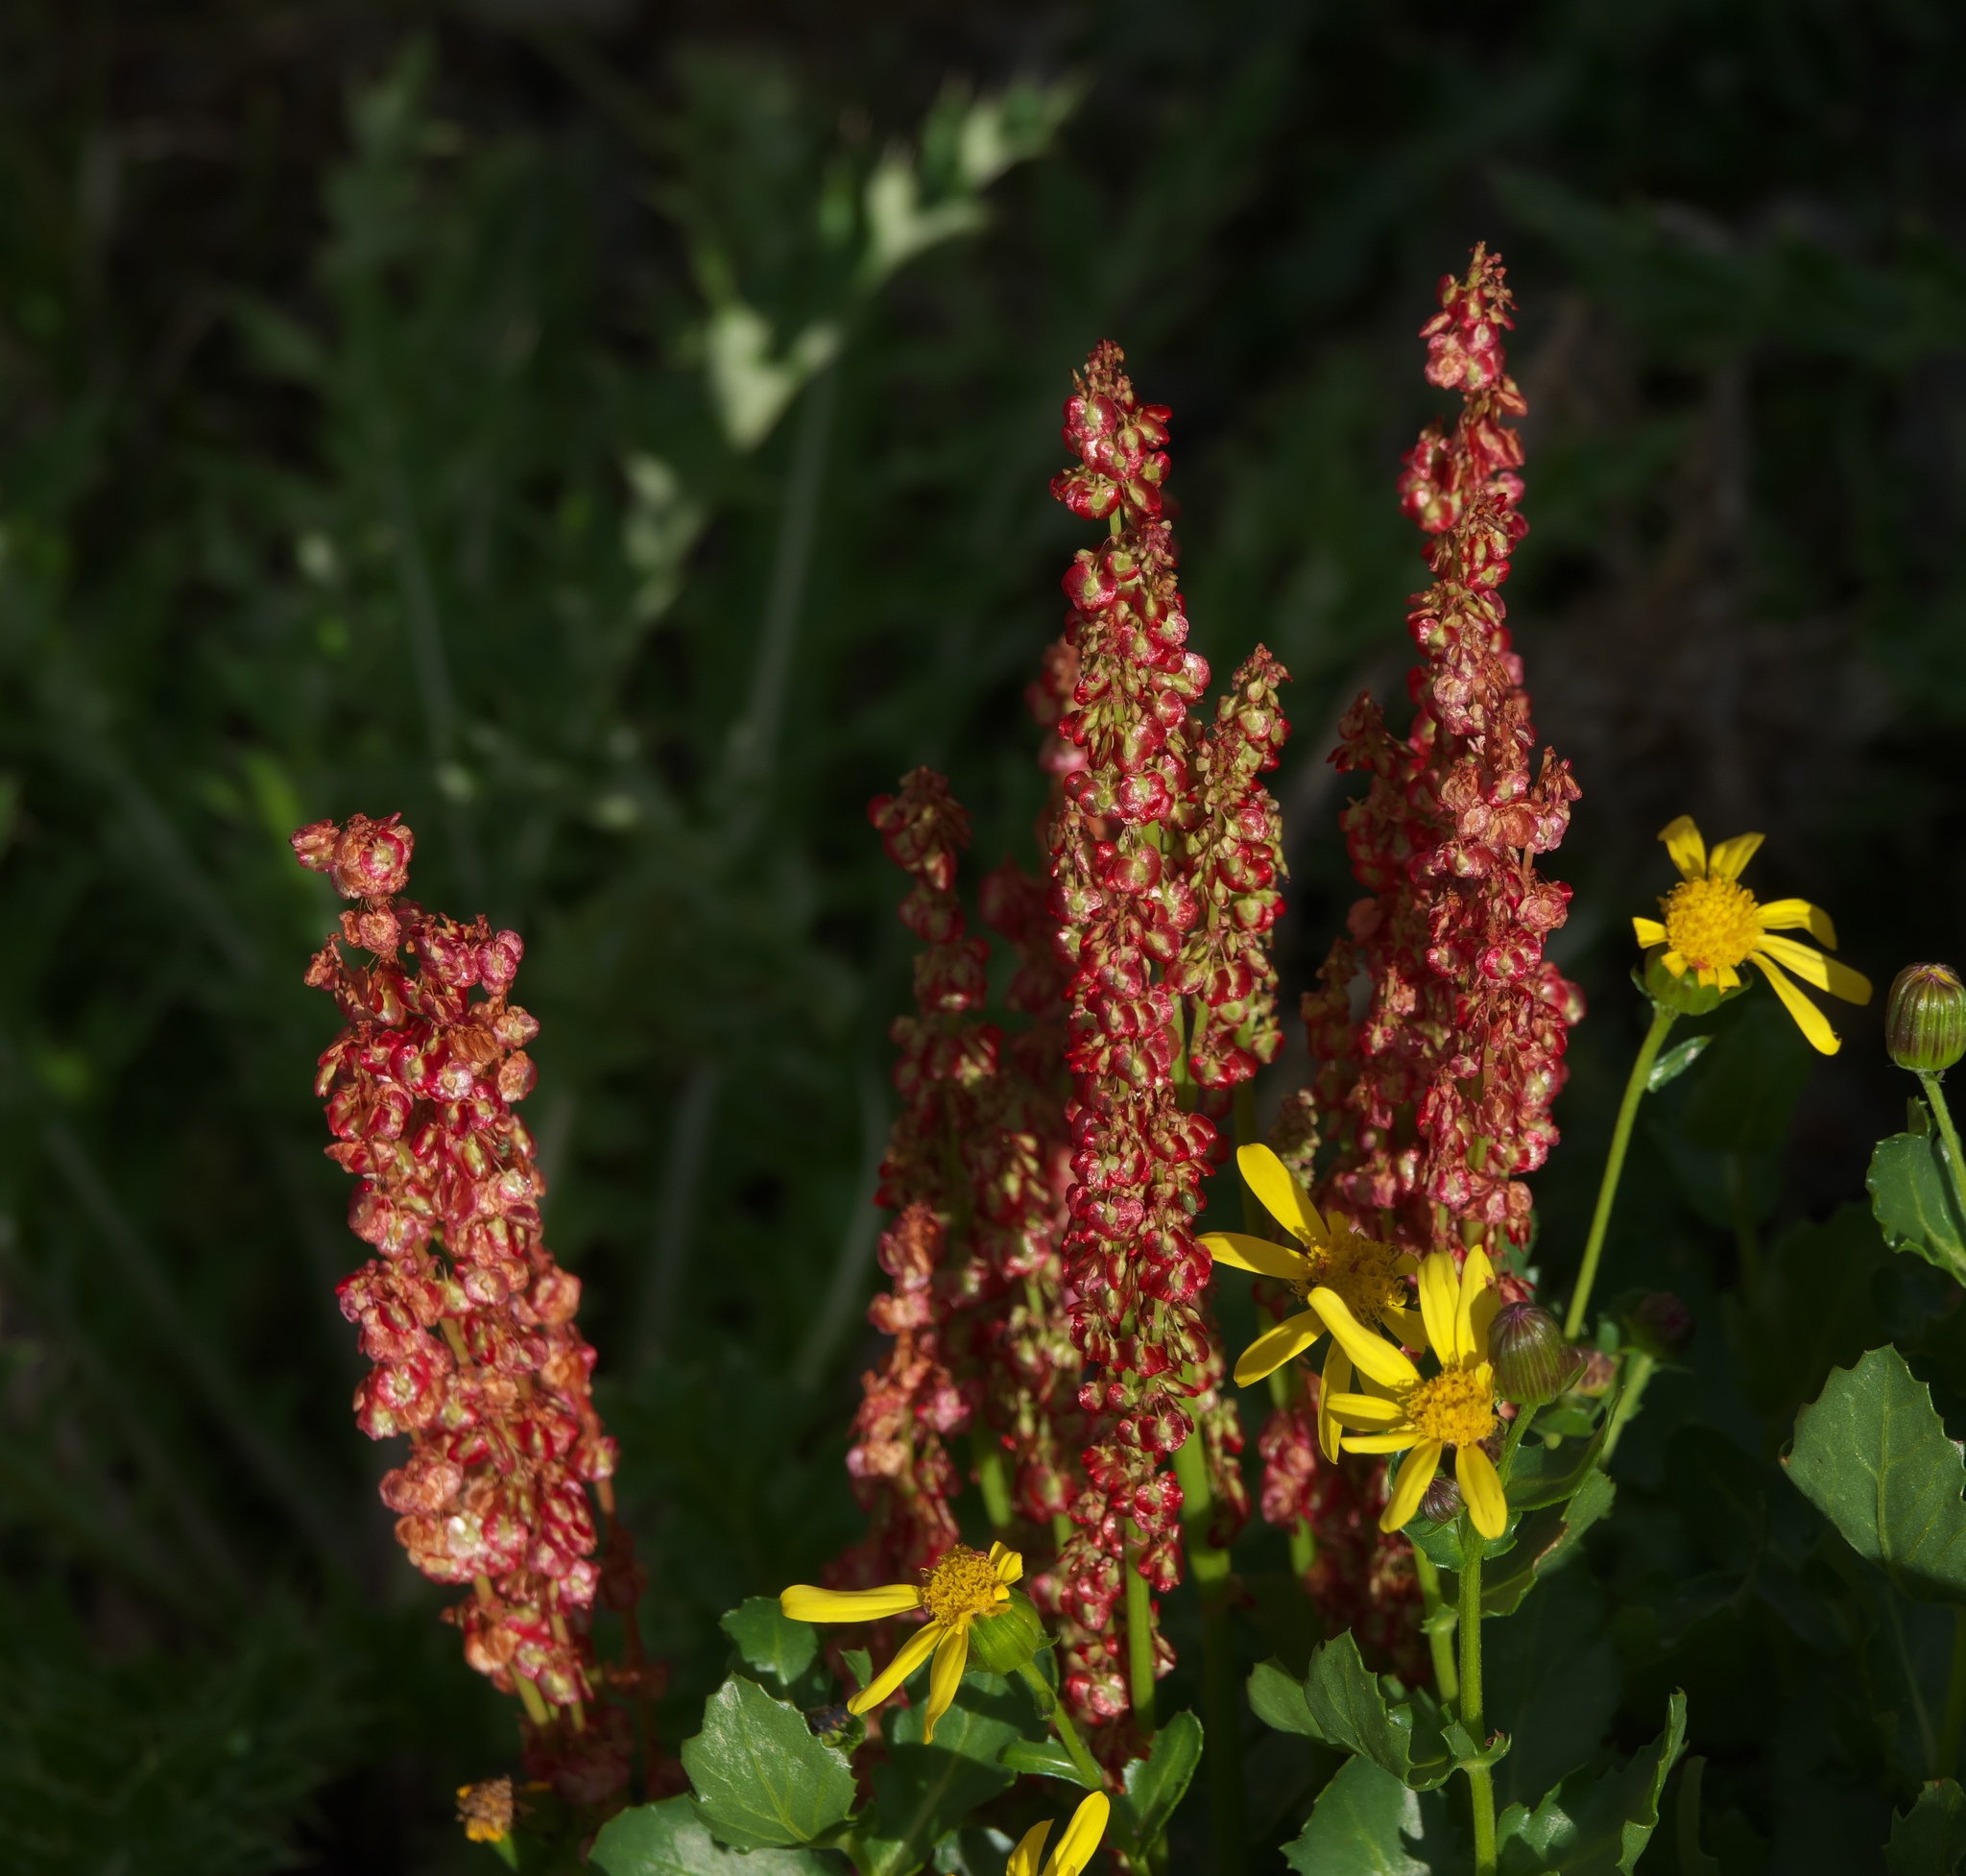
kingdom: Plantae
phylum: Tracheophyta
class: Magnoliopsida
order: Caryophyllales
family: Polygonaceae
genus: Oxyria
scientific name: Oxyria digyna
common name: Alpine mountain-sorrel
